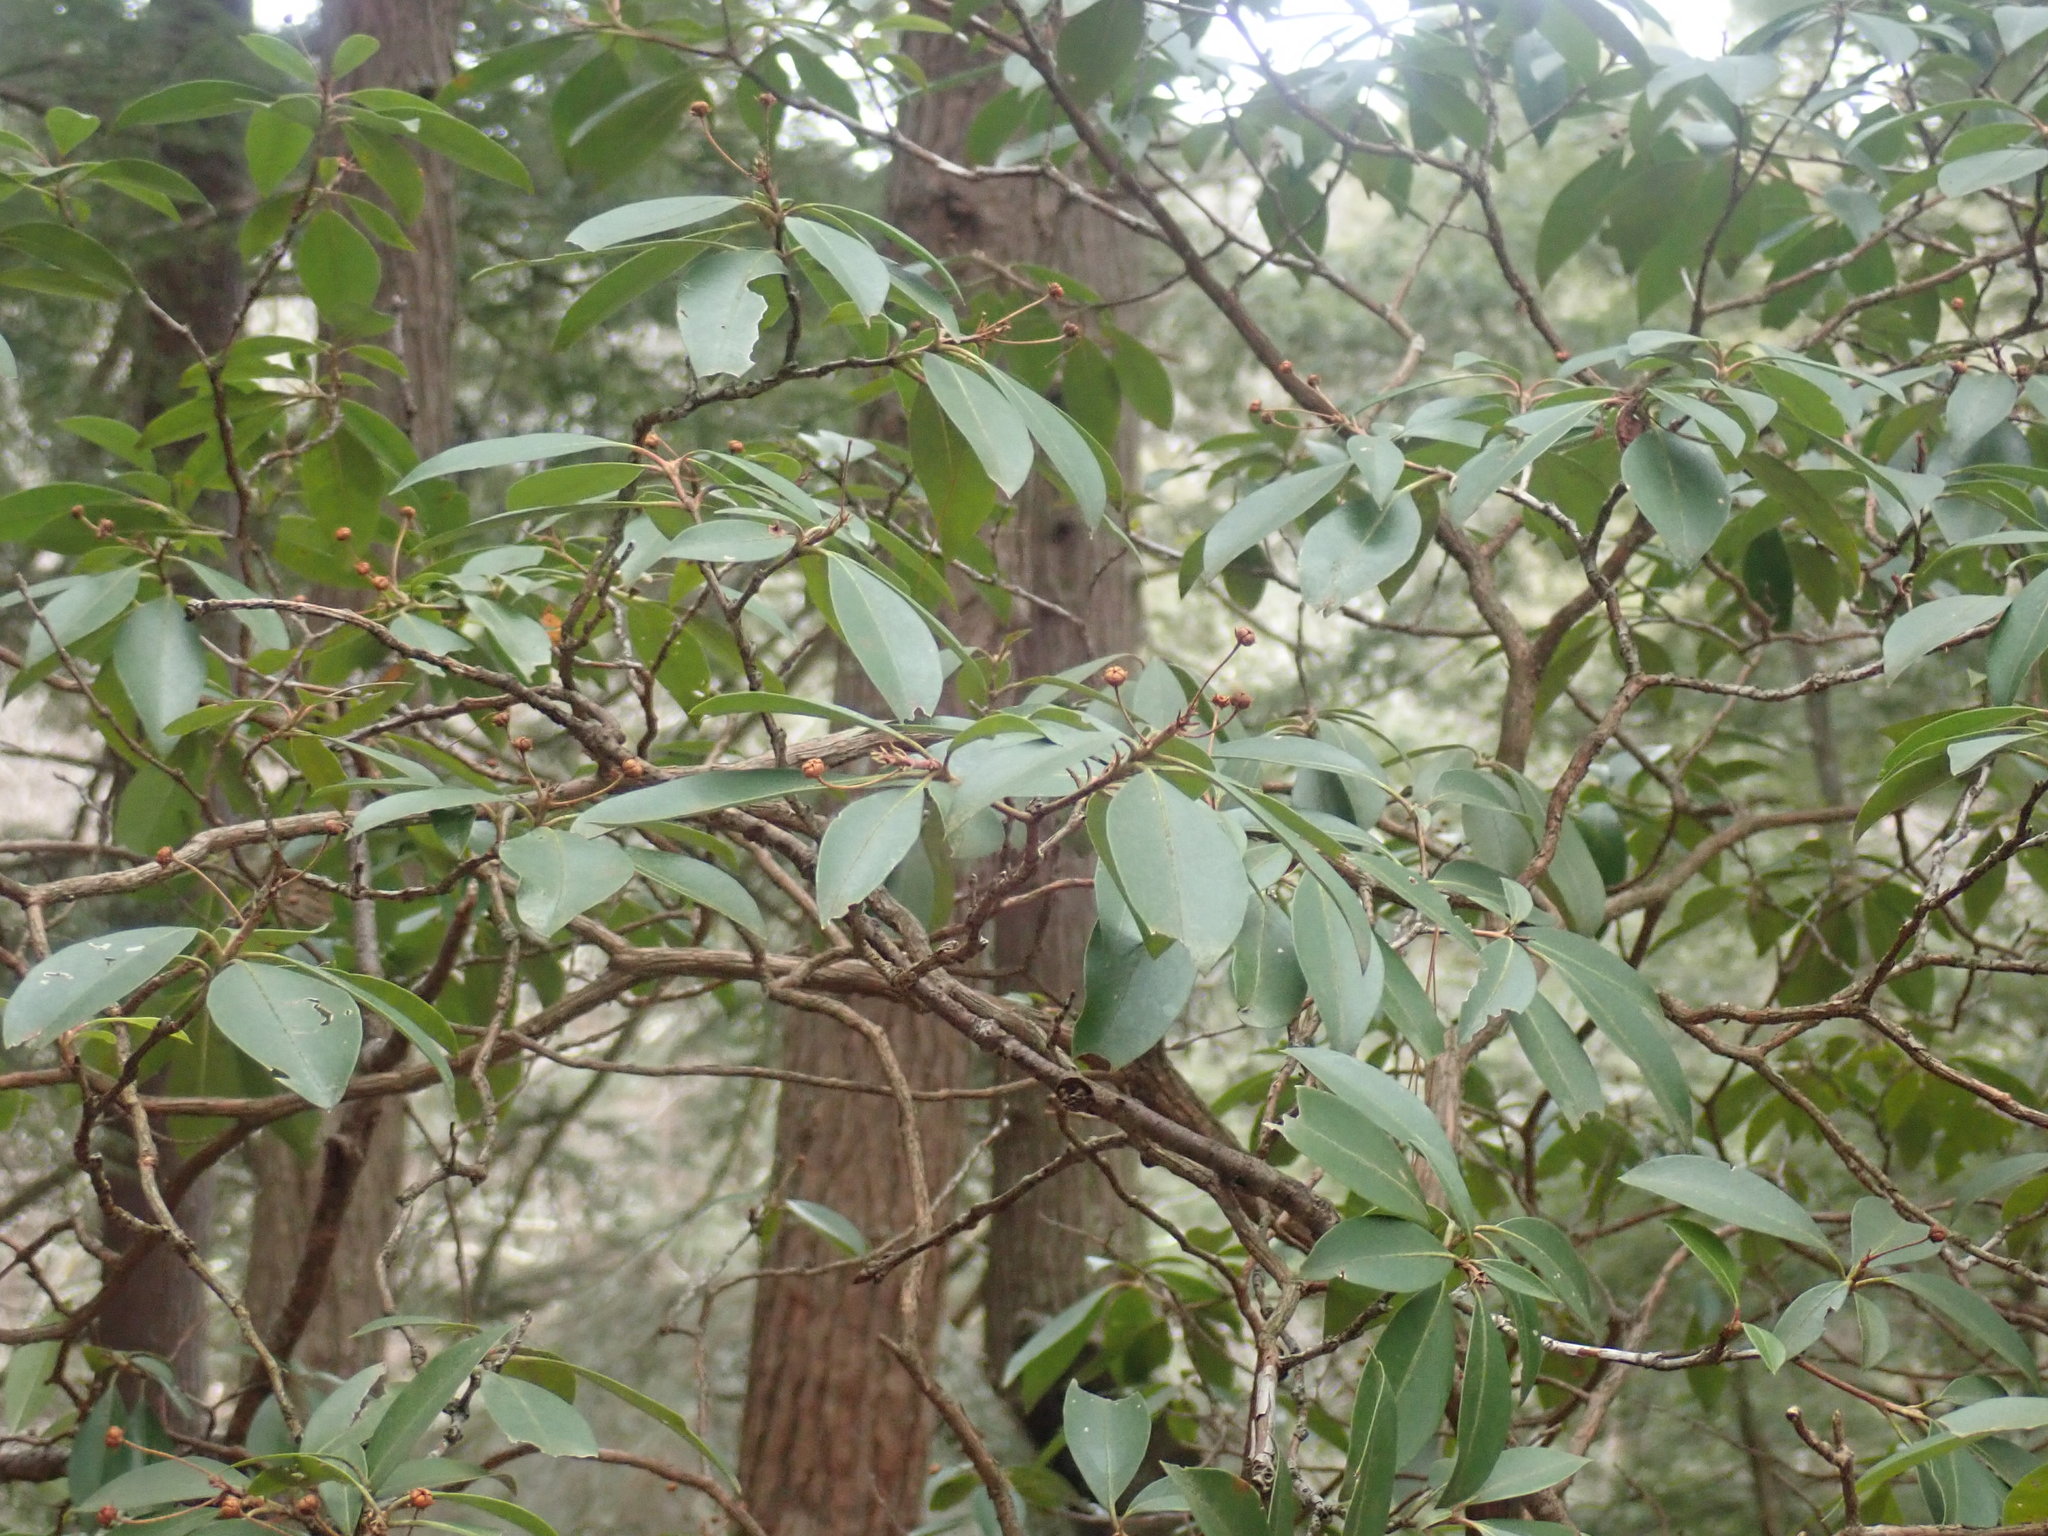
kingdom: Plantae
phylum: Tracheophyta
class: Magnoliopsida
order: Ericales
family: Ericaceae
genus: Kalmia
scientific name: Kalmia latifolia
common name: Mountain-laurel
